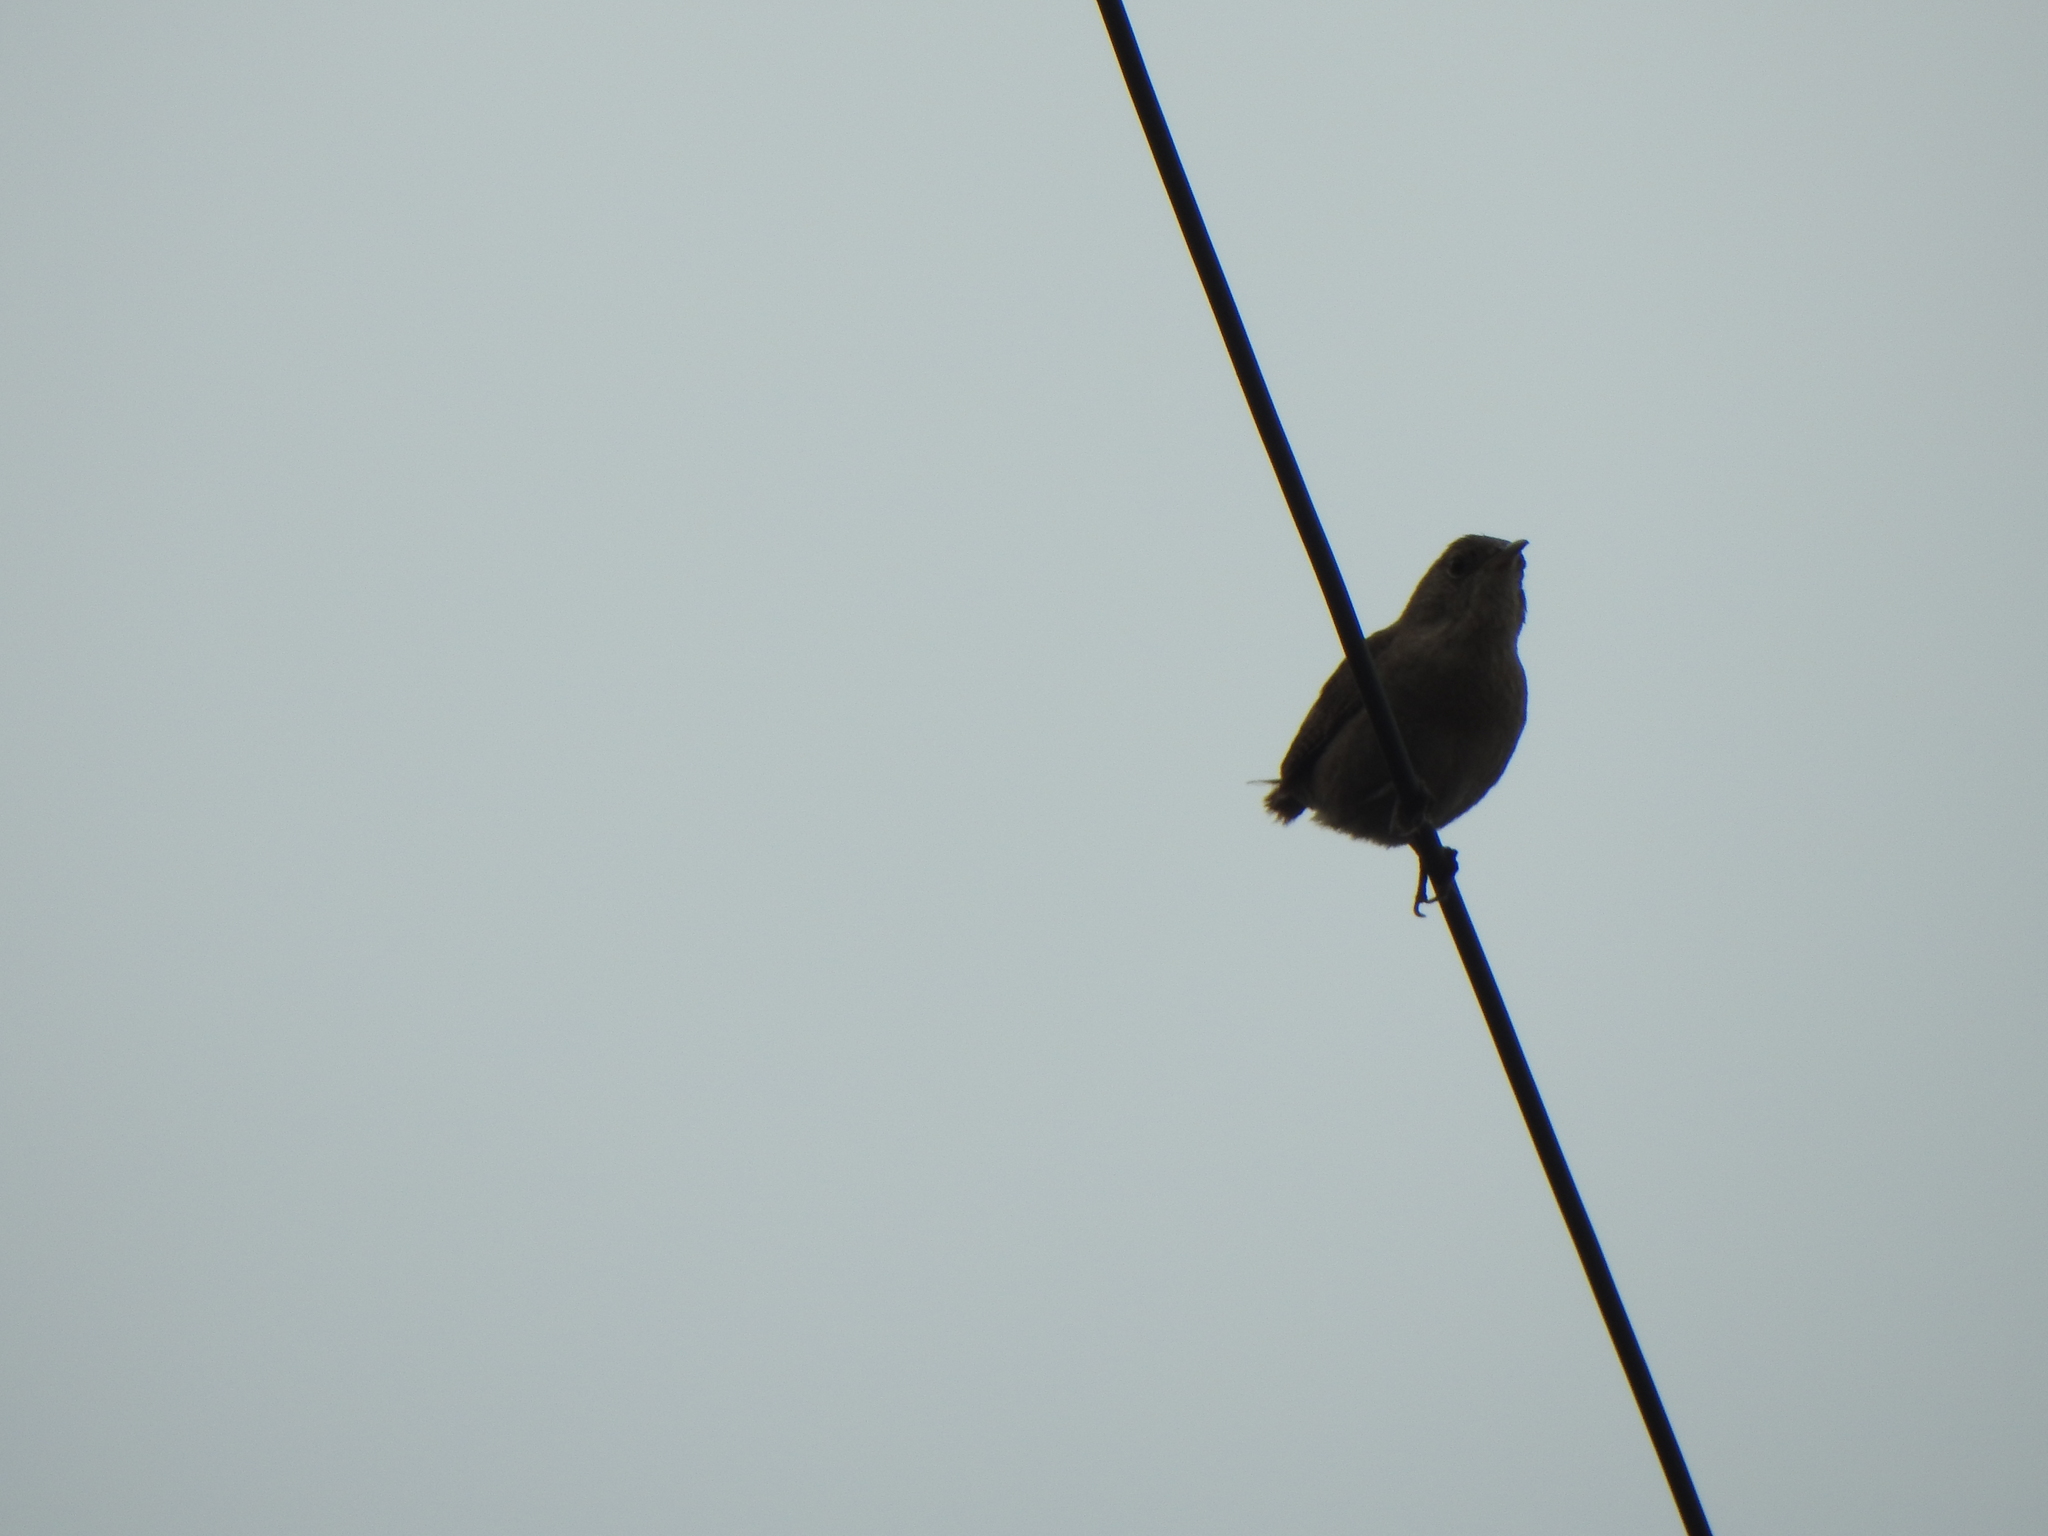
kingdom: Animalia
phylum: Chordata
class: Aves
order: Passeriformes
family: Troglodytidae
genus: Troglodytes
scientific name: Troglodytes aedon
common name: House wren
